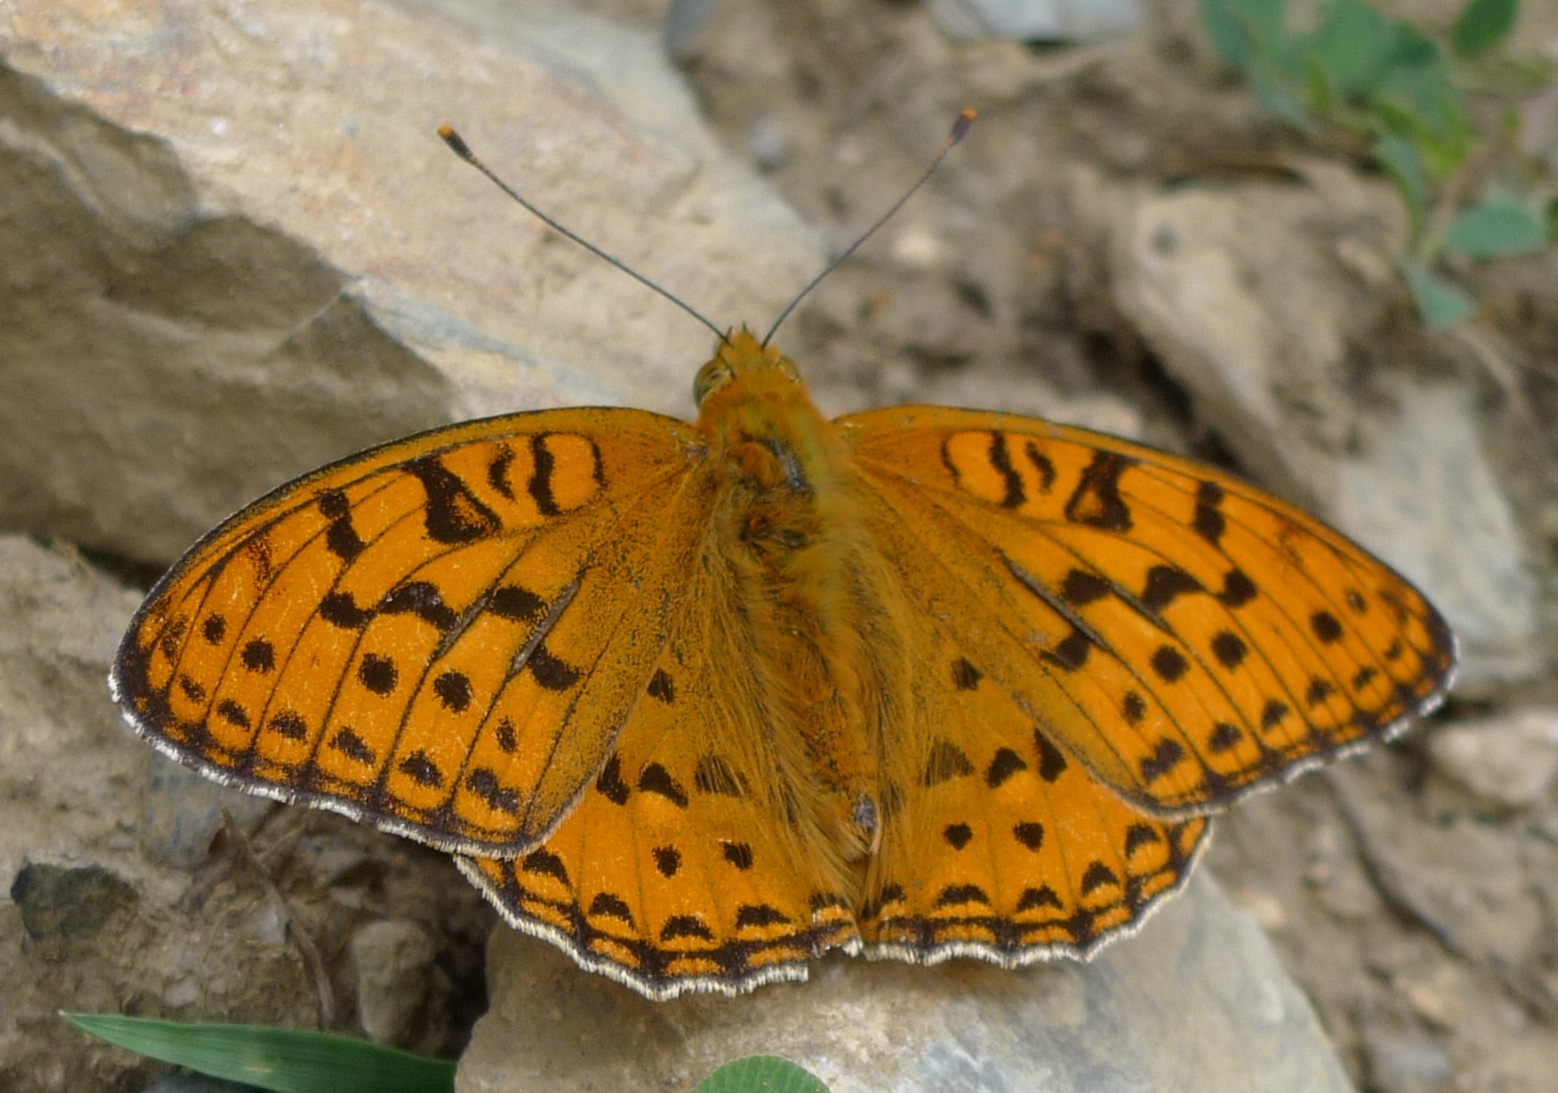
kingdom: Animalia
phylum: Arthropoda
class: Insecta
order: Lepidoptera
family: Nymphalidae
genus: Fabriciana
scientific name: Fabriciana adippe
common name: High brown fritillary
